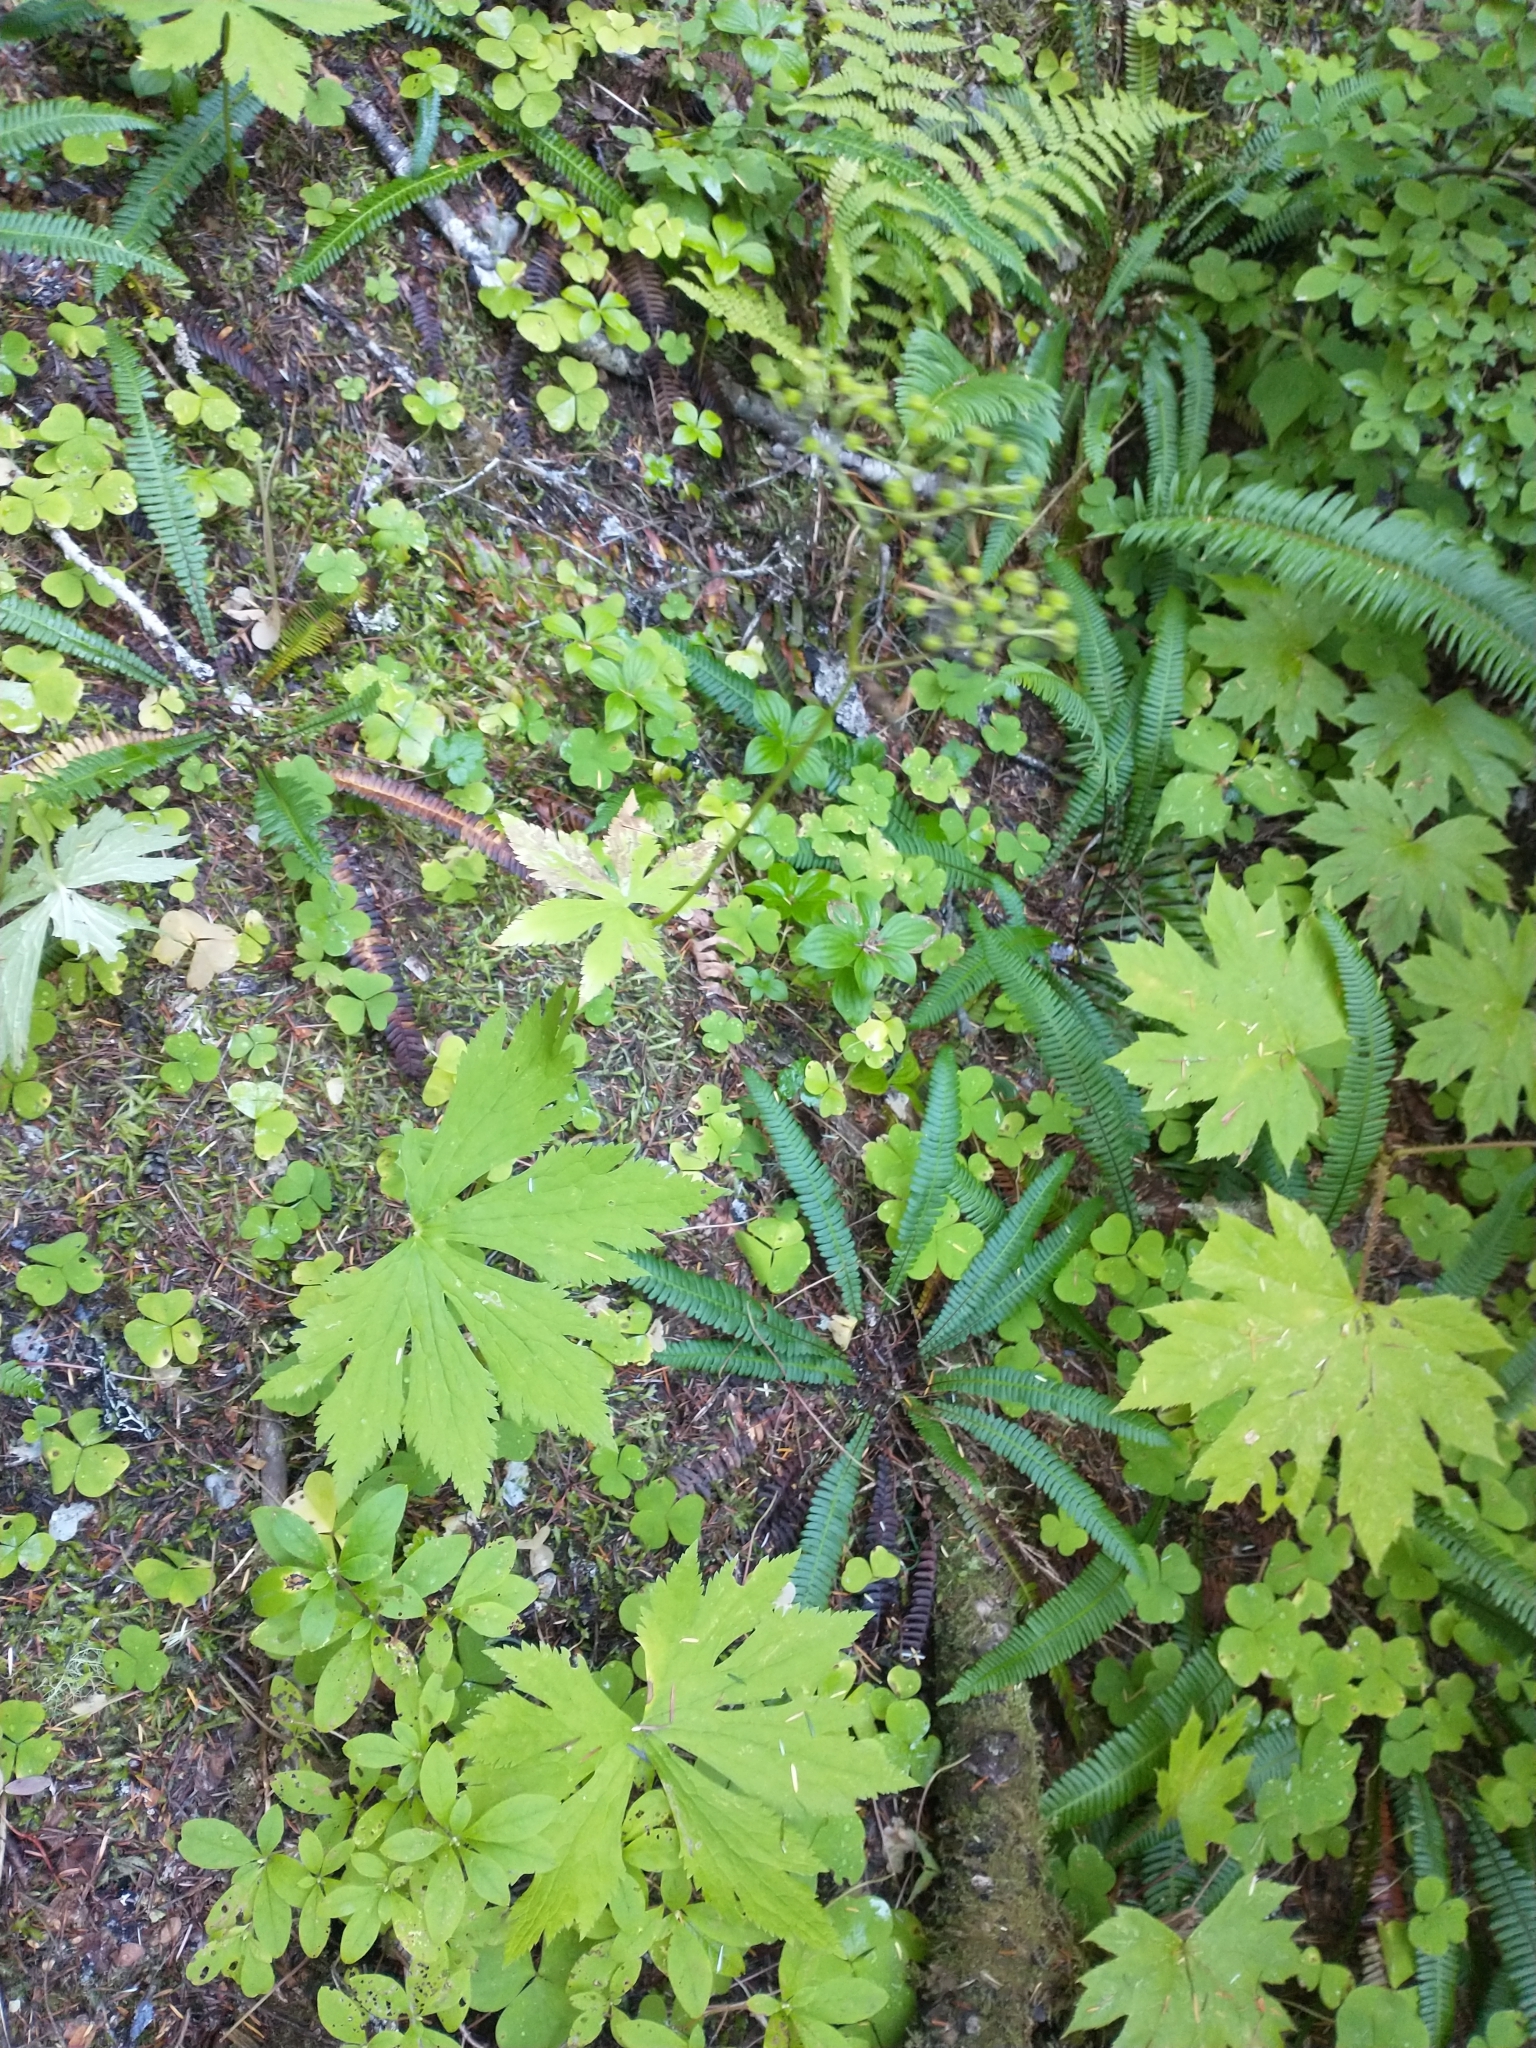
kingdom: Plantae
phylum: Tracheophyta
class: Magnoliopsida
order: Ranunculales
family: Ranunculaceae
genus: Trautvetteria
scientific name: Trautvetteria carolinensis
